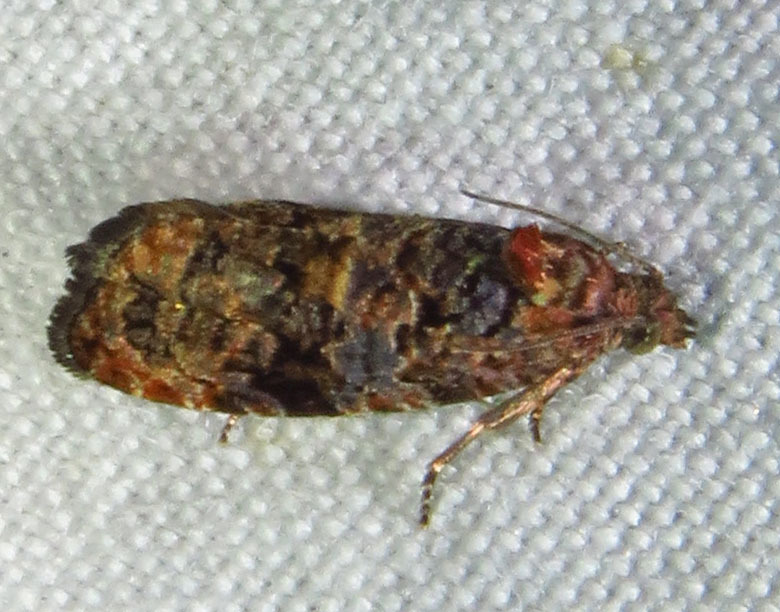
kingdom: Animalia
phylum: Arthropoda
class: Insecta
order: Lepidoptera
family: Tortricidae
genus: Endothenia
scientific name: Endothenia hebesana
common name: Verbena bud moth
